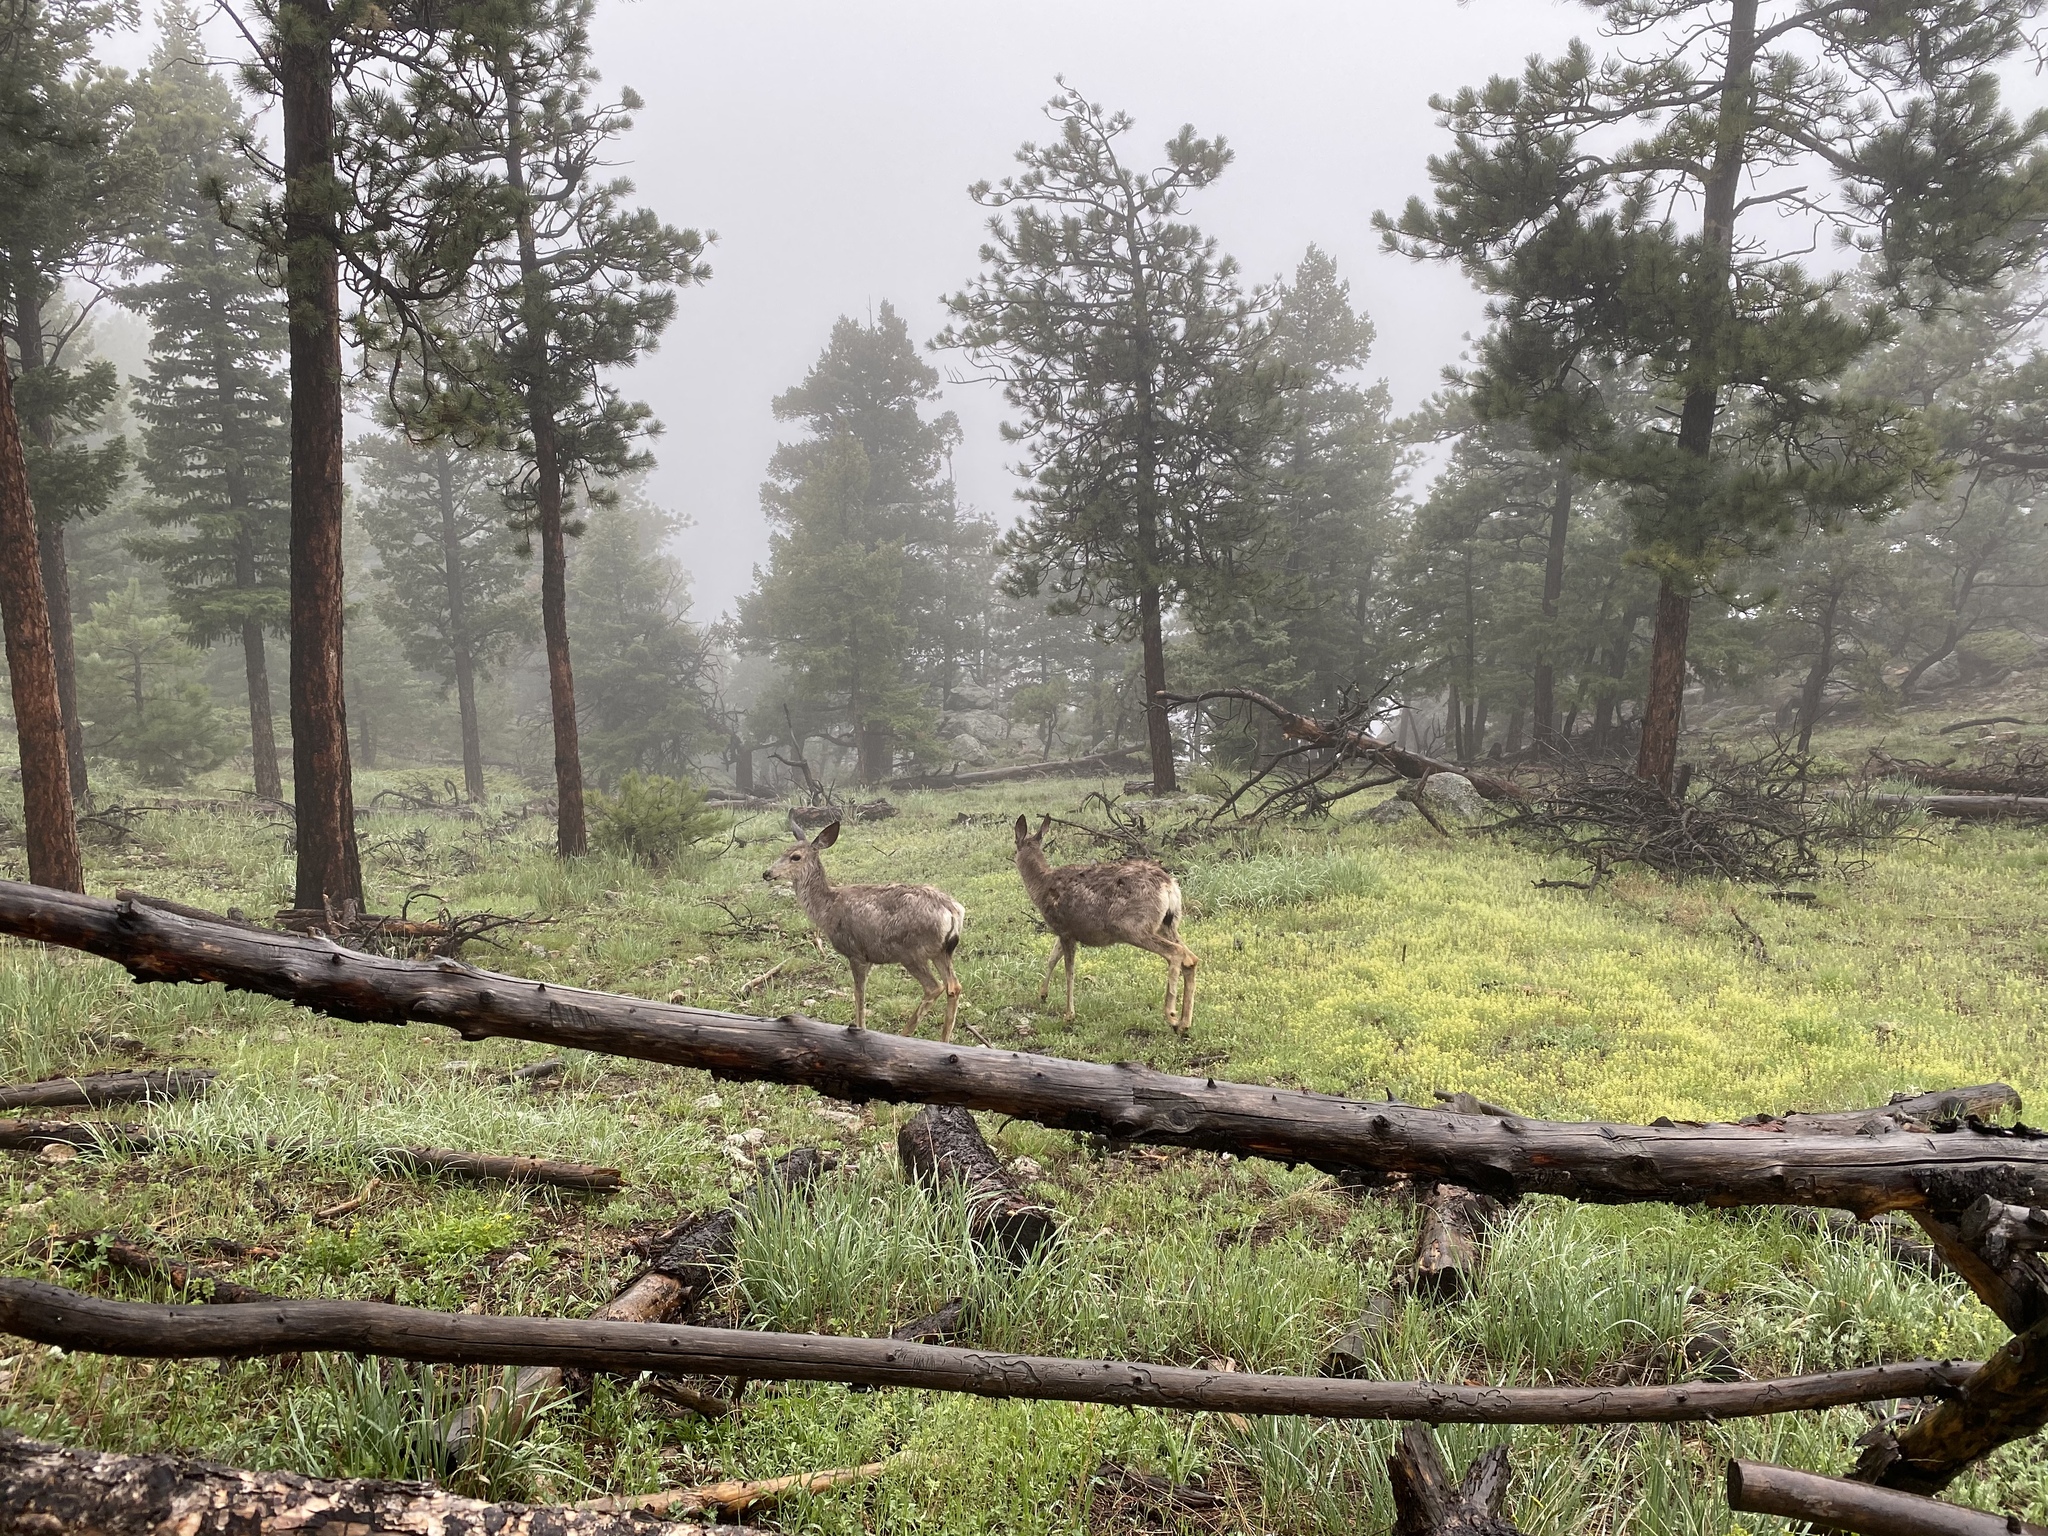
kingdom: Animalia
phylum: Chordata
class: Mammalia
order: Artiodactyla
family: Cervidae
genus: Odocoileus
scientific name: Odocoileus hemionus
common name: Mule deer
